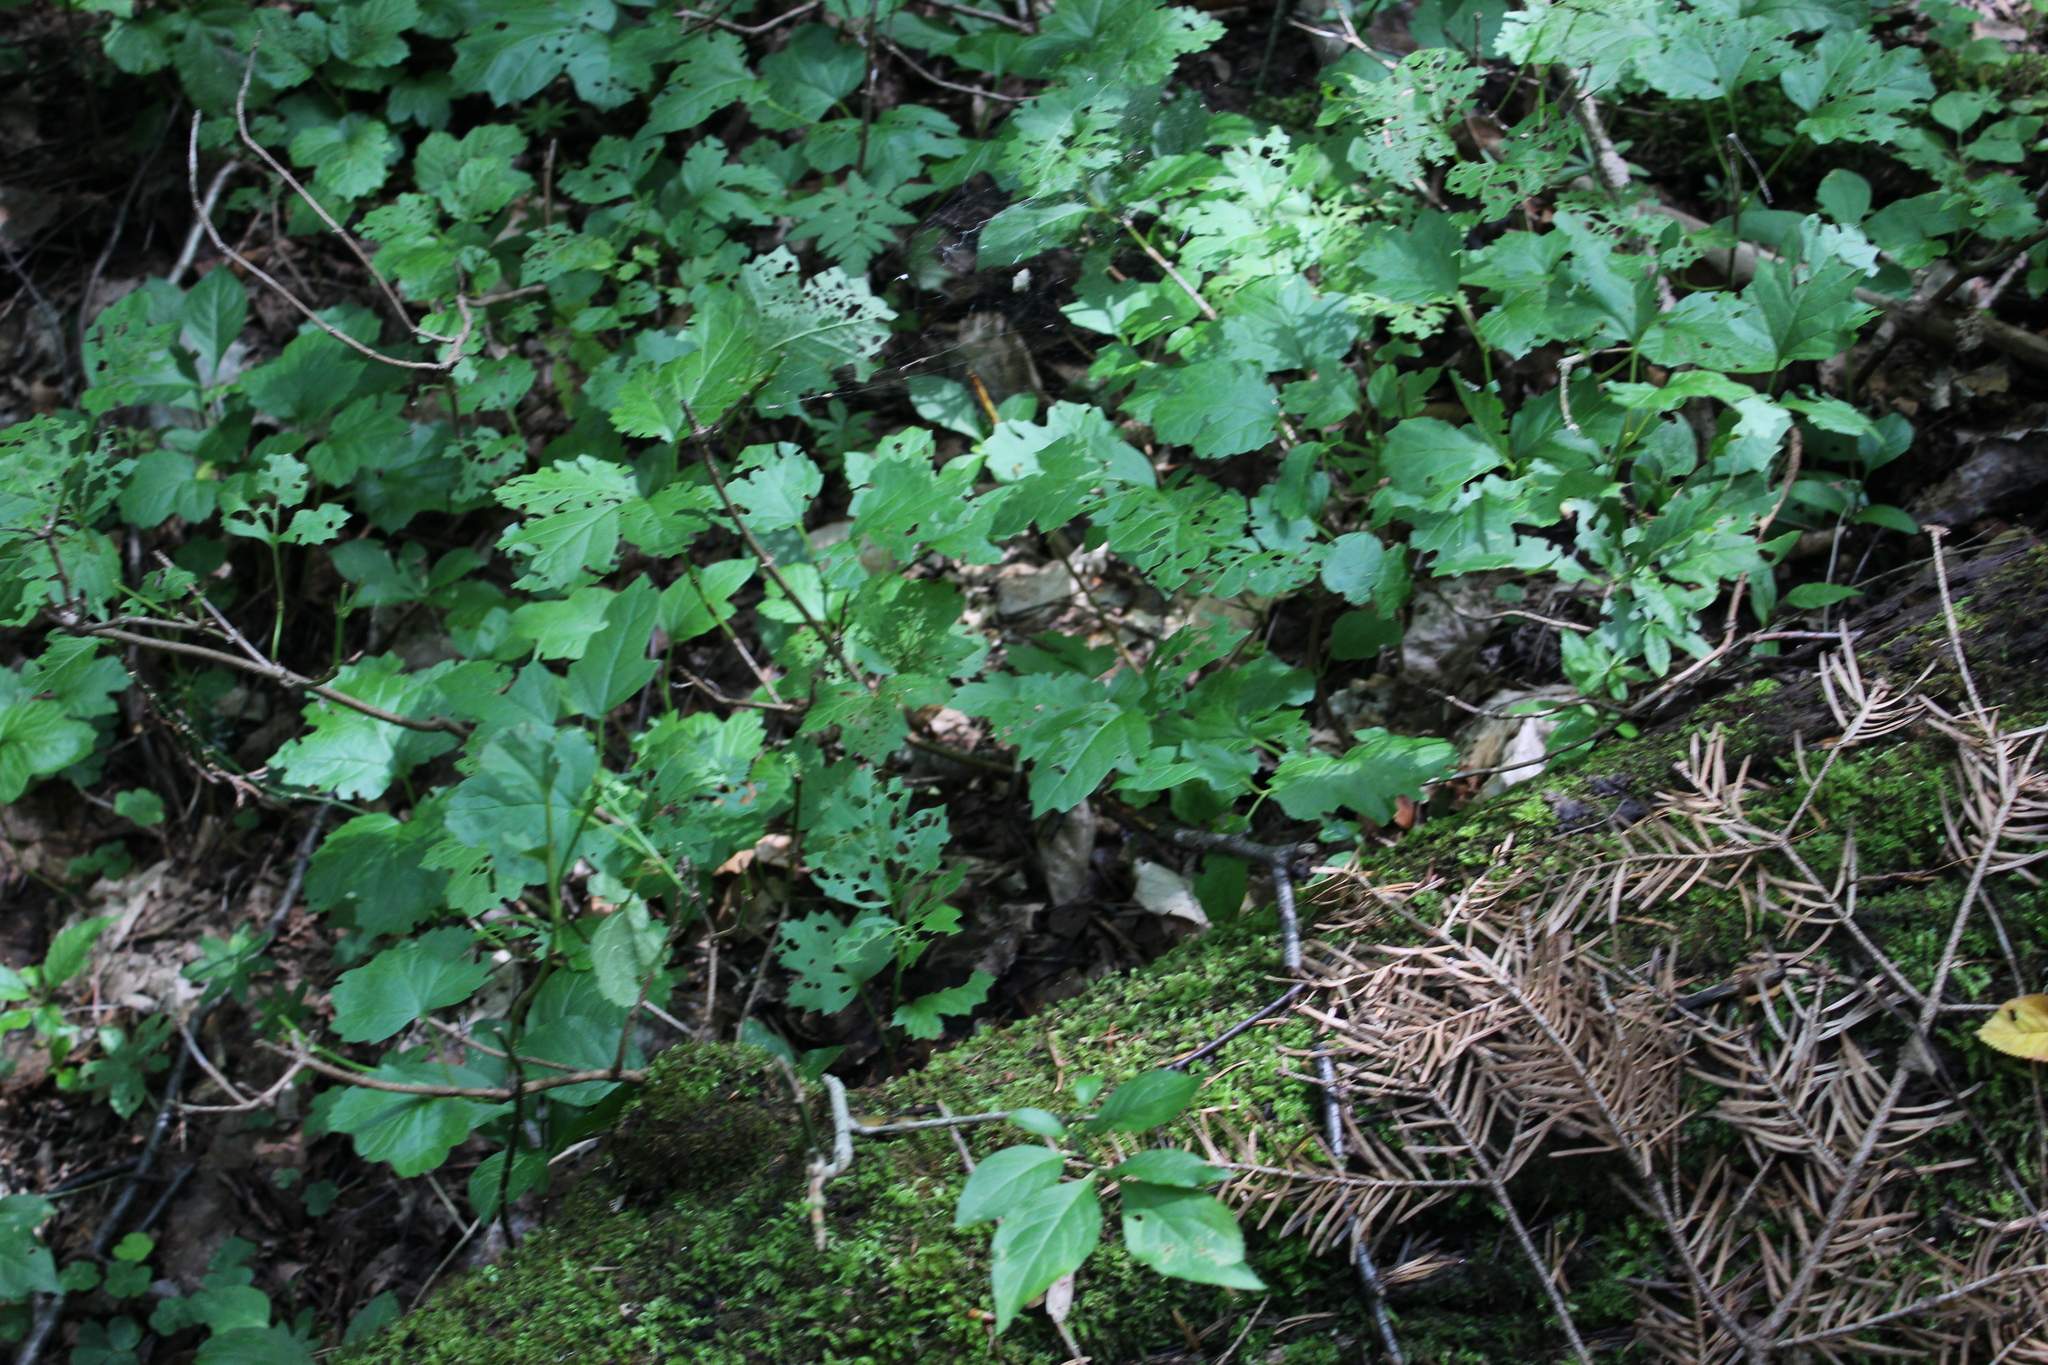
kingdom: Plantae
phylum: Tracheophyta
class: Magnoliopsida
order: Dipsacales
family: Viburnaceae
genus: Viburnum
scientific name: Viburnum opulus
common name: Guelder-rose
